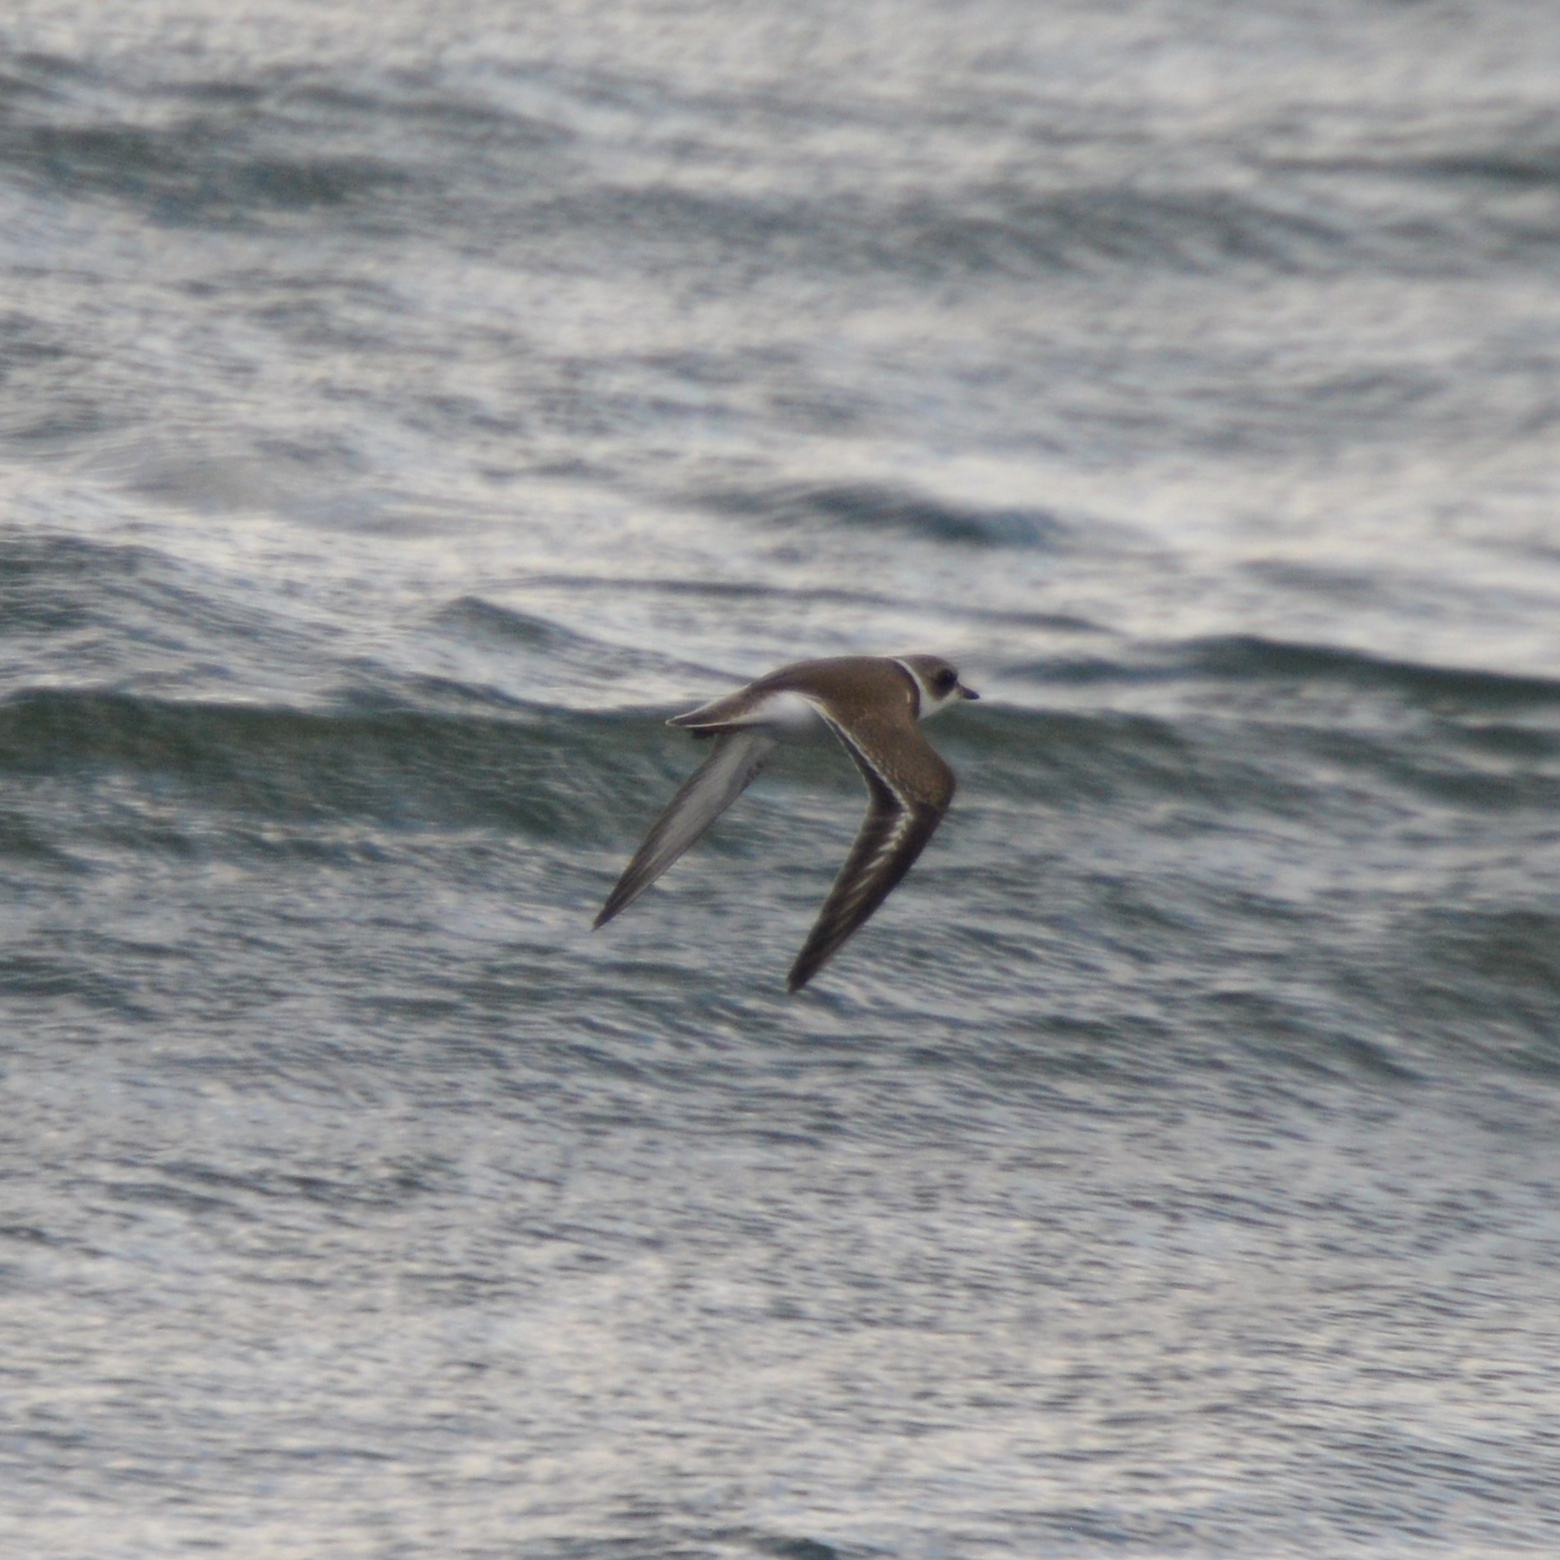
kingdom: Animalia
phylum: Chordata
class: Aves
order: Charadriiformes
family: Charadriidae
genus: Charadrius
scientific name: Charadrius semipalmatus
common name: Semipalmated plover
